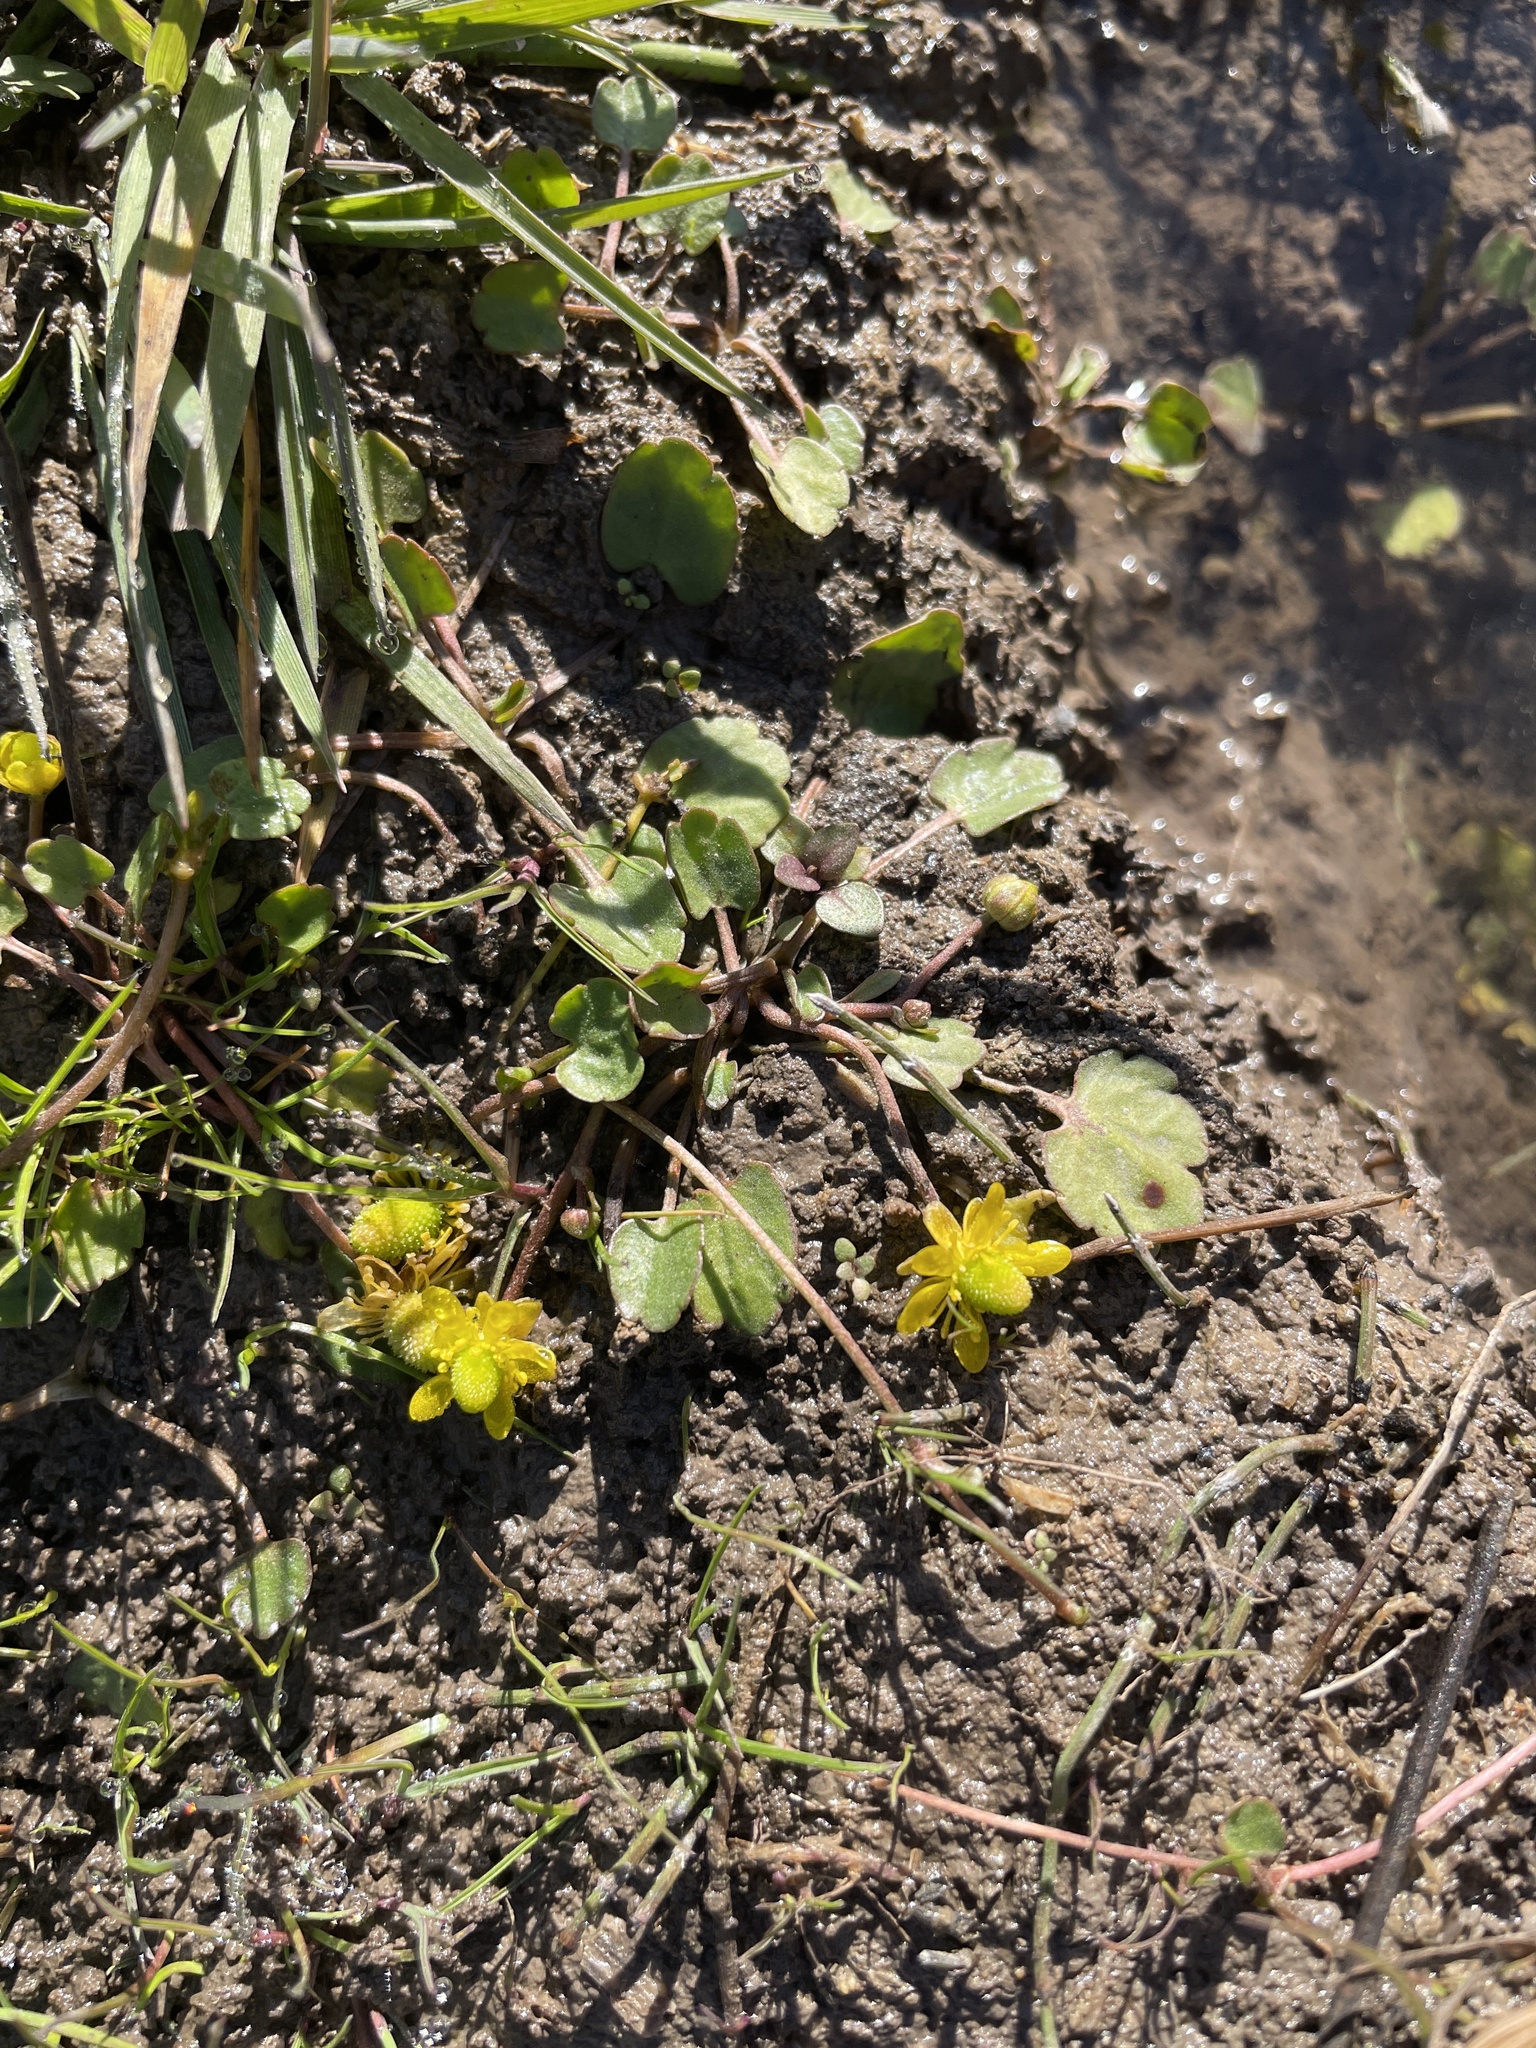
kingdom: Plantae
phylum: Tracheophyta
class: Magnoliopsida
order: Ranunculales
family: Ranunculaceae
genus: Halerpestes
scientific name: Halerpestes cymbalaria
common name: Seaside crowfoot
